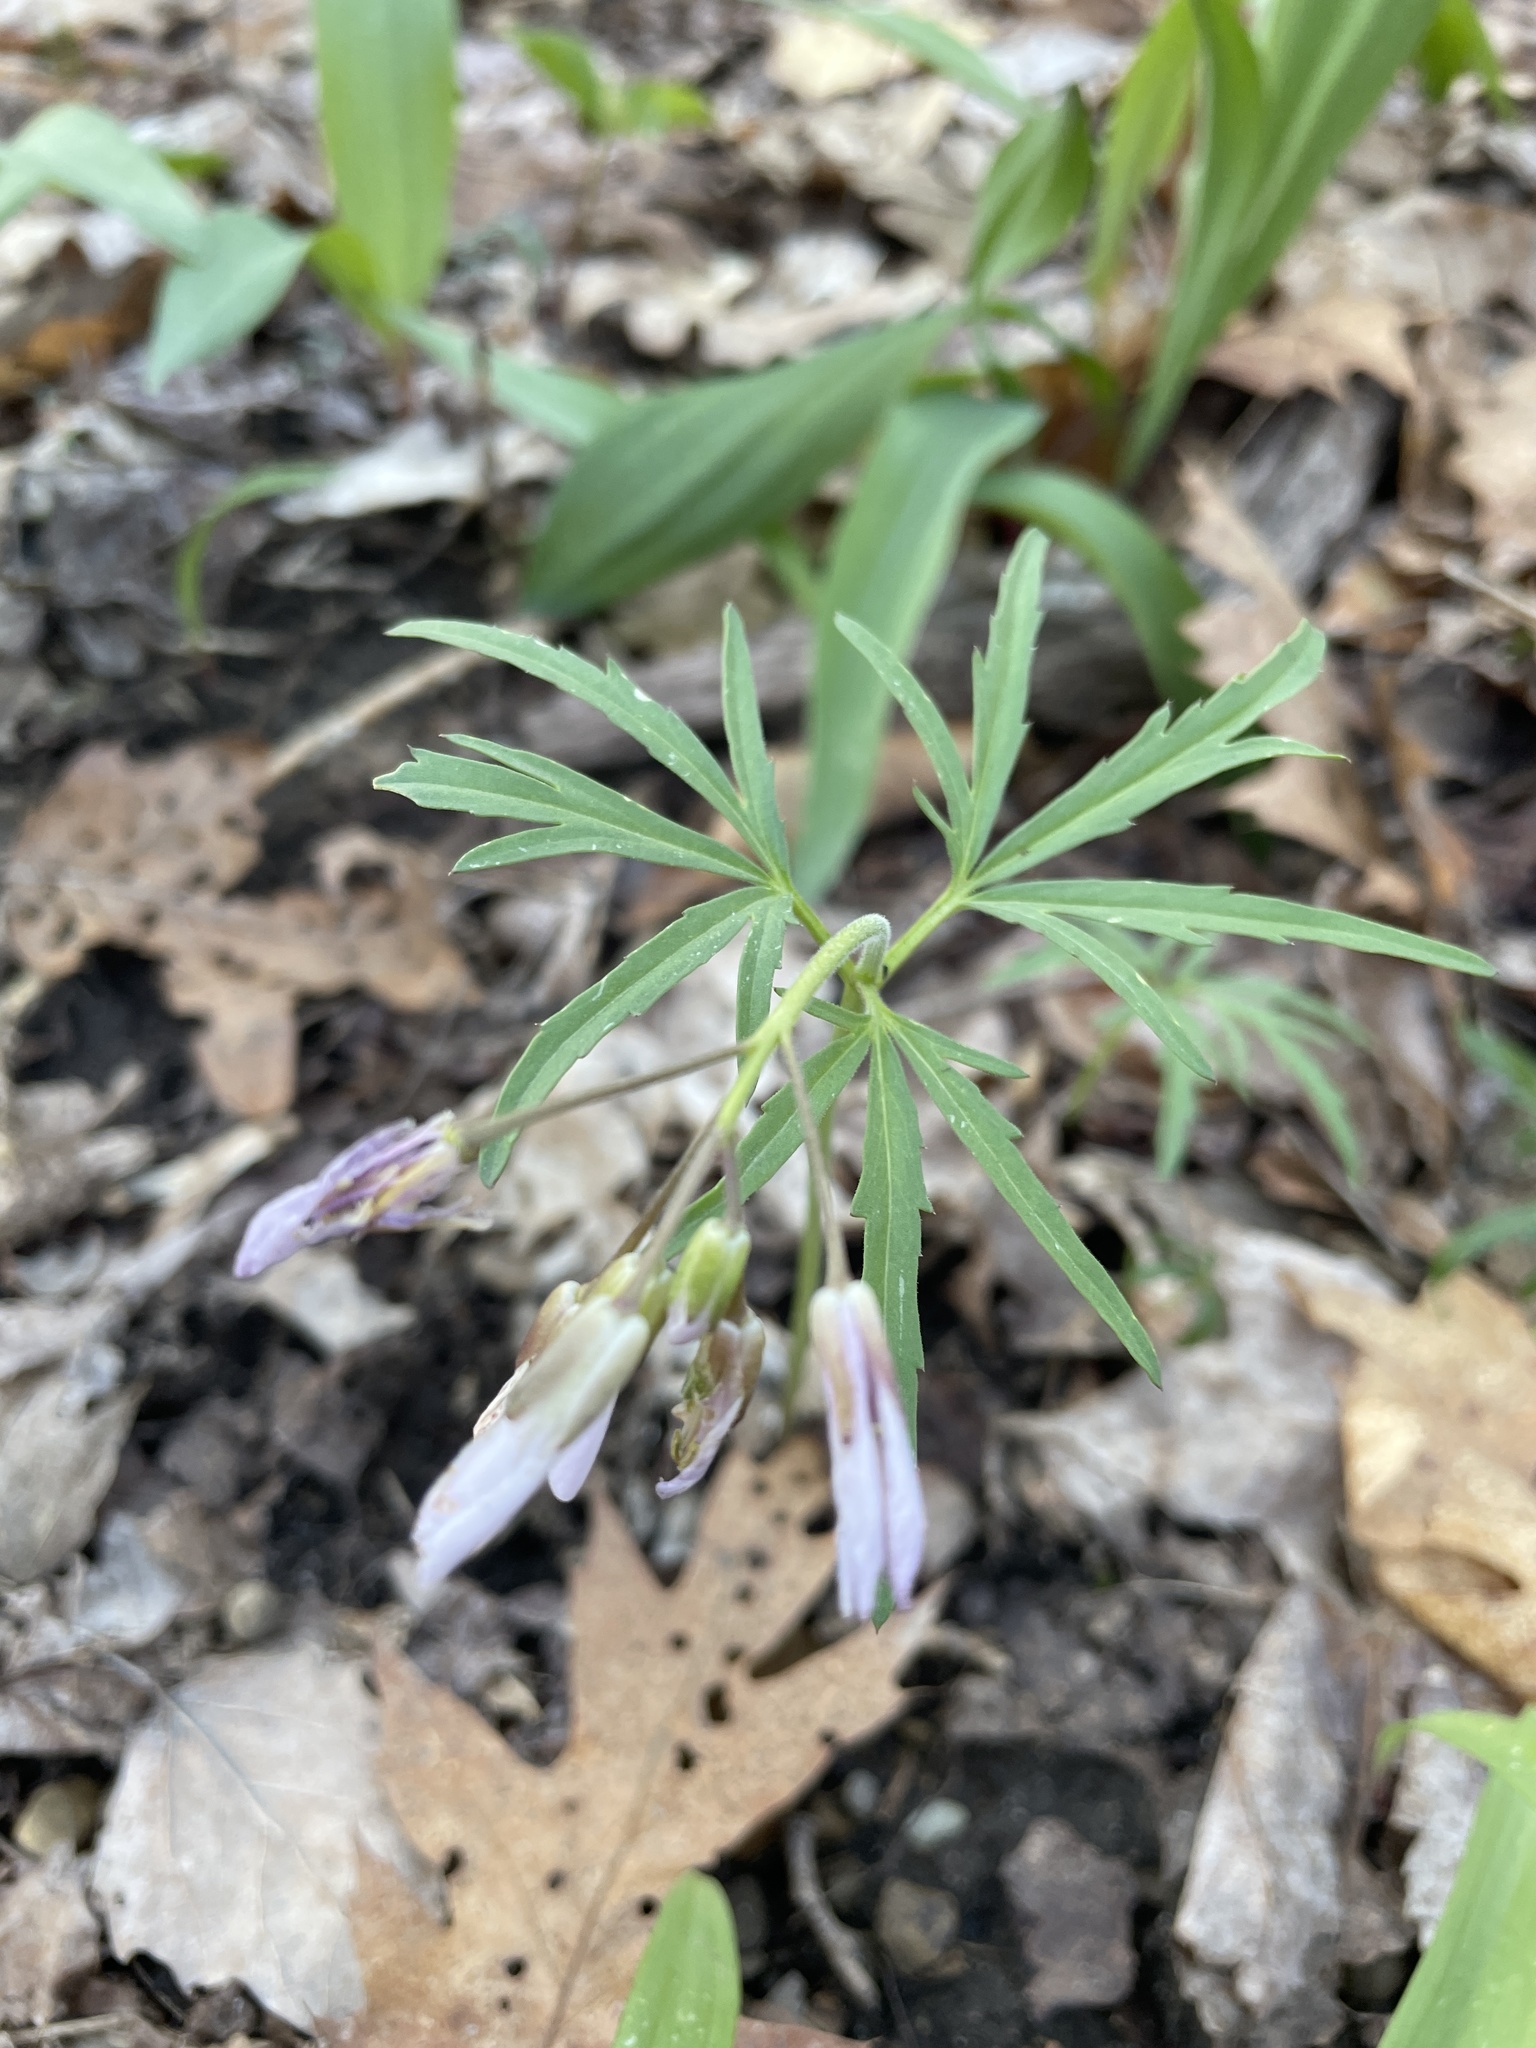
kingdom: Plantae
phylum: Tracheophyta
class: Magnoliopsida
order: Brassicales
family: Brassicaceae
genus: Cardamine
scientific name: Cardamine concatenata
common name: Cut-leaf toothcup
